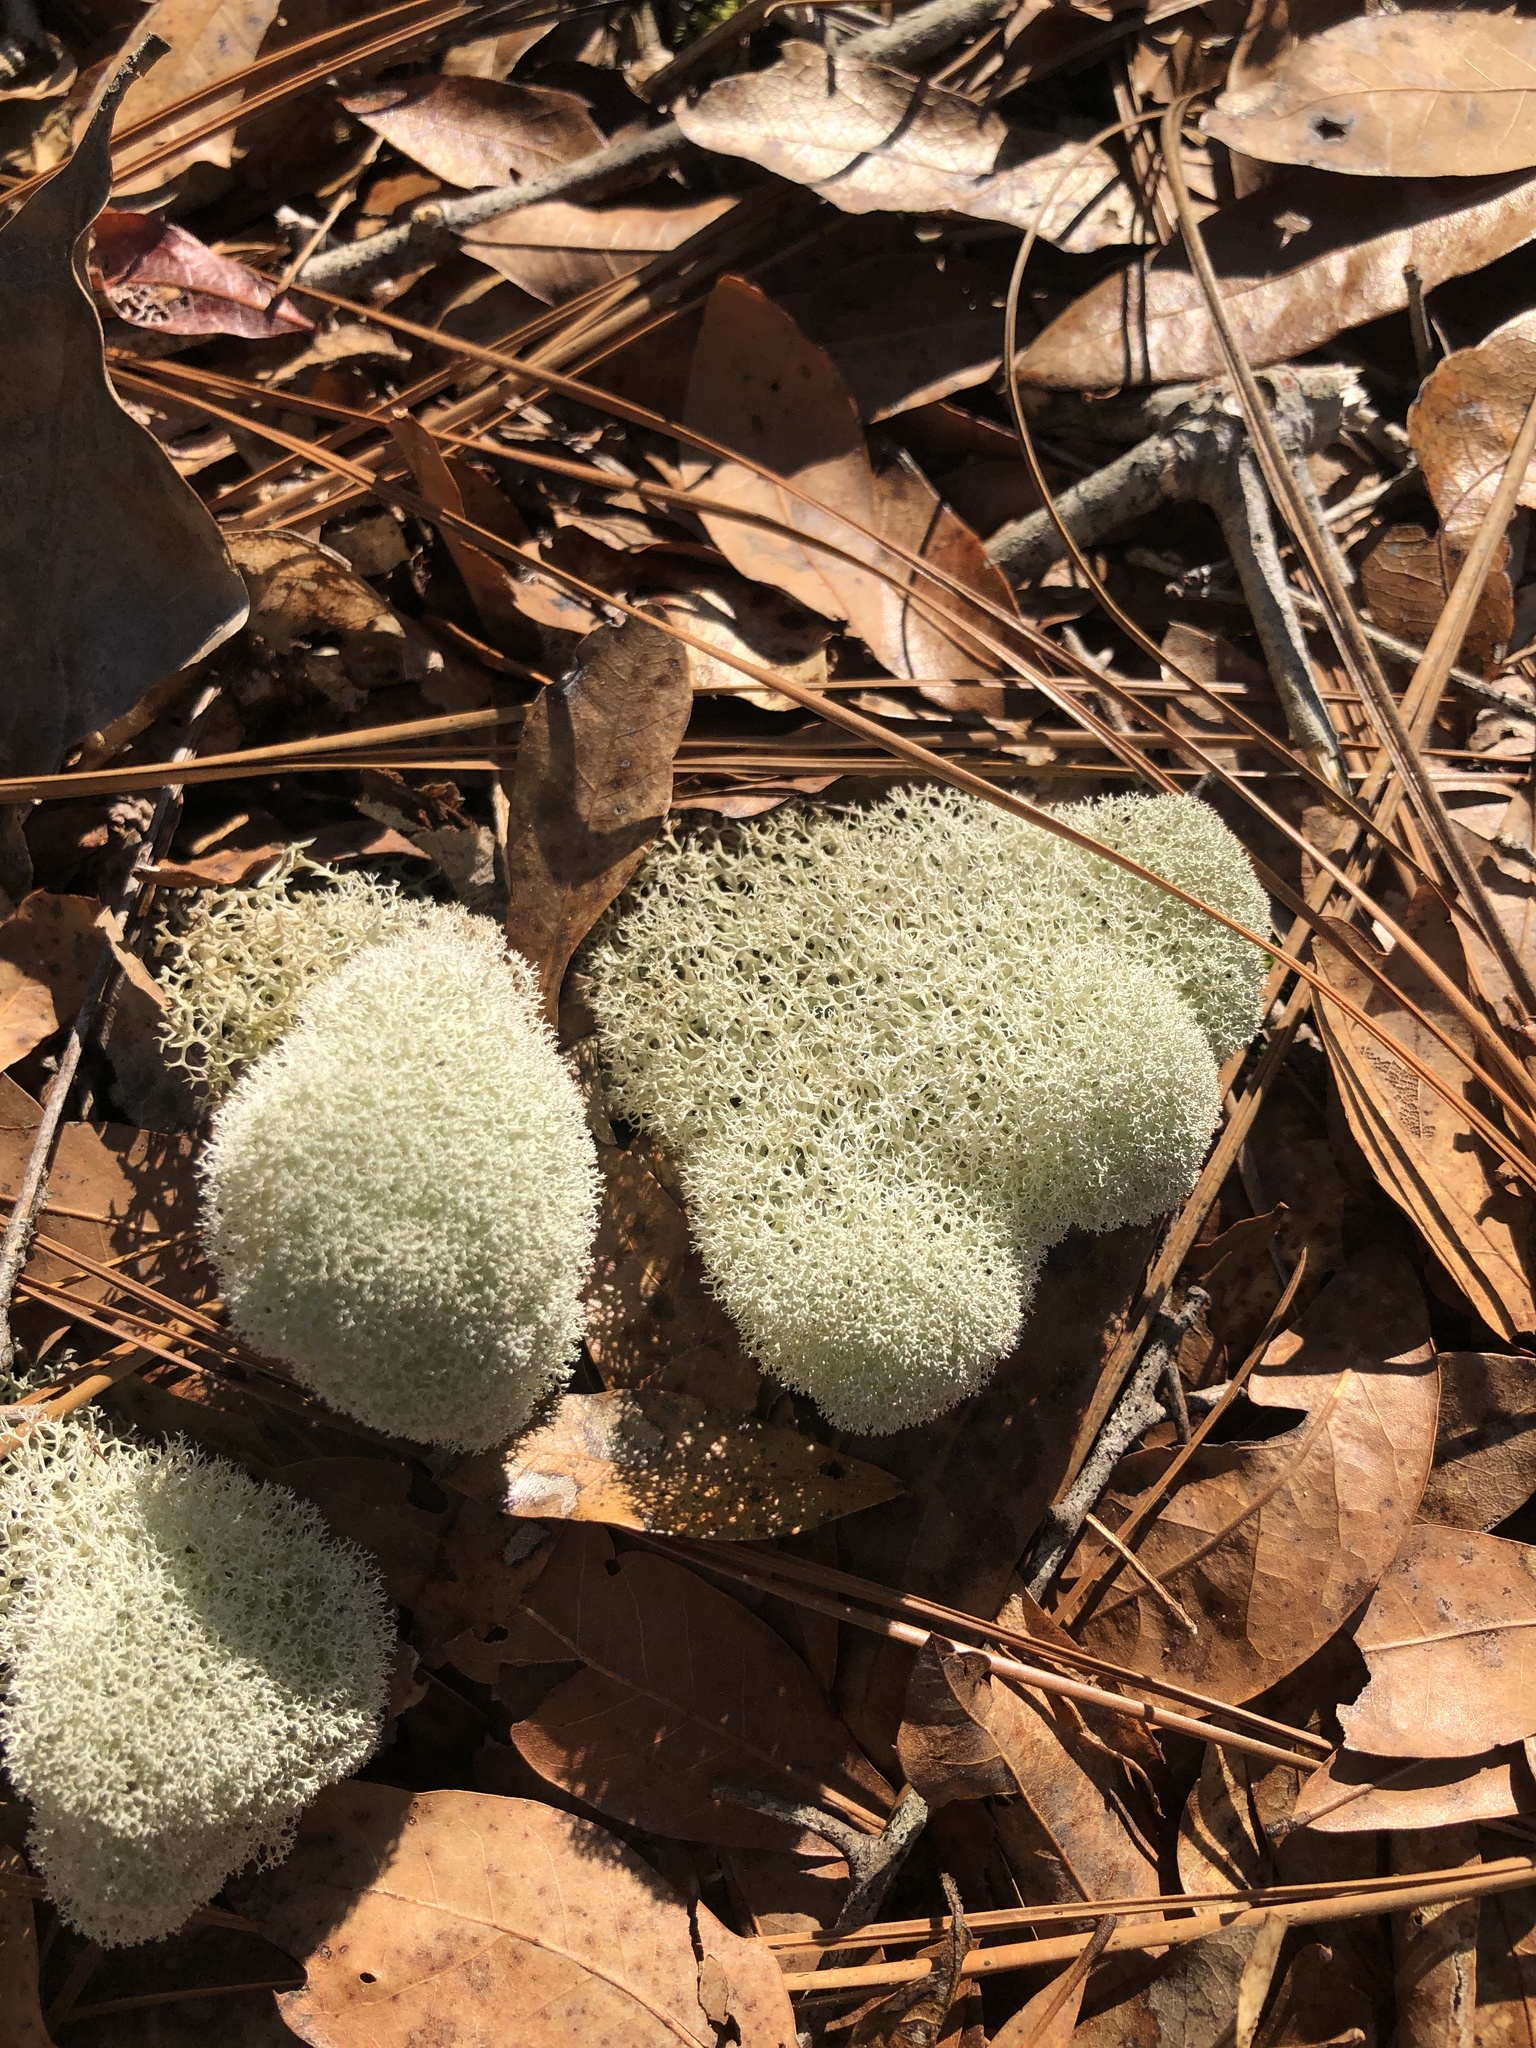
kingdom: Fungi
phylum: Ascomycota
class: Lecanoromycetes
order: Lecanorales
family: Cladoniaceae
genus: Cladonia
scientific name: Cladonia evansii
